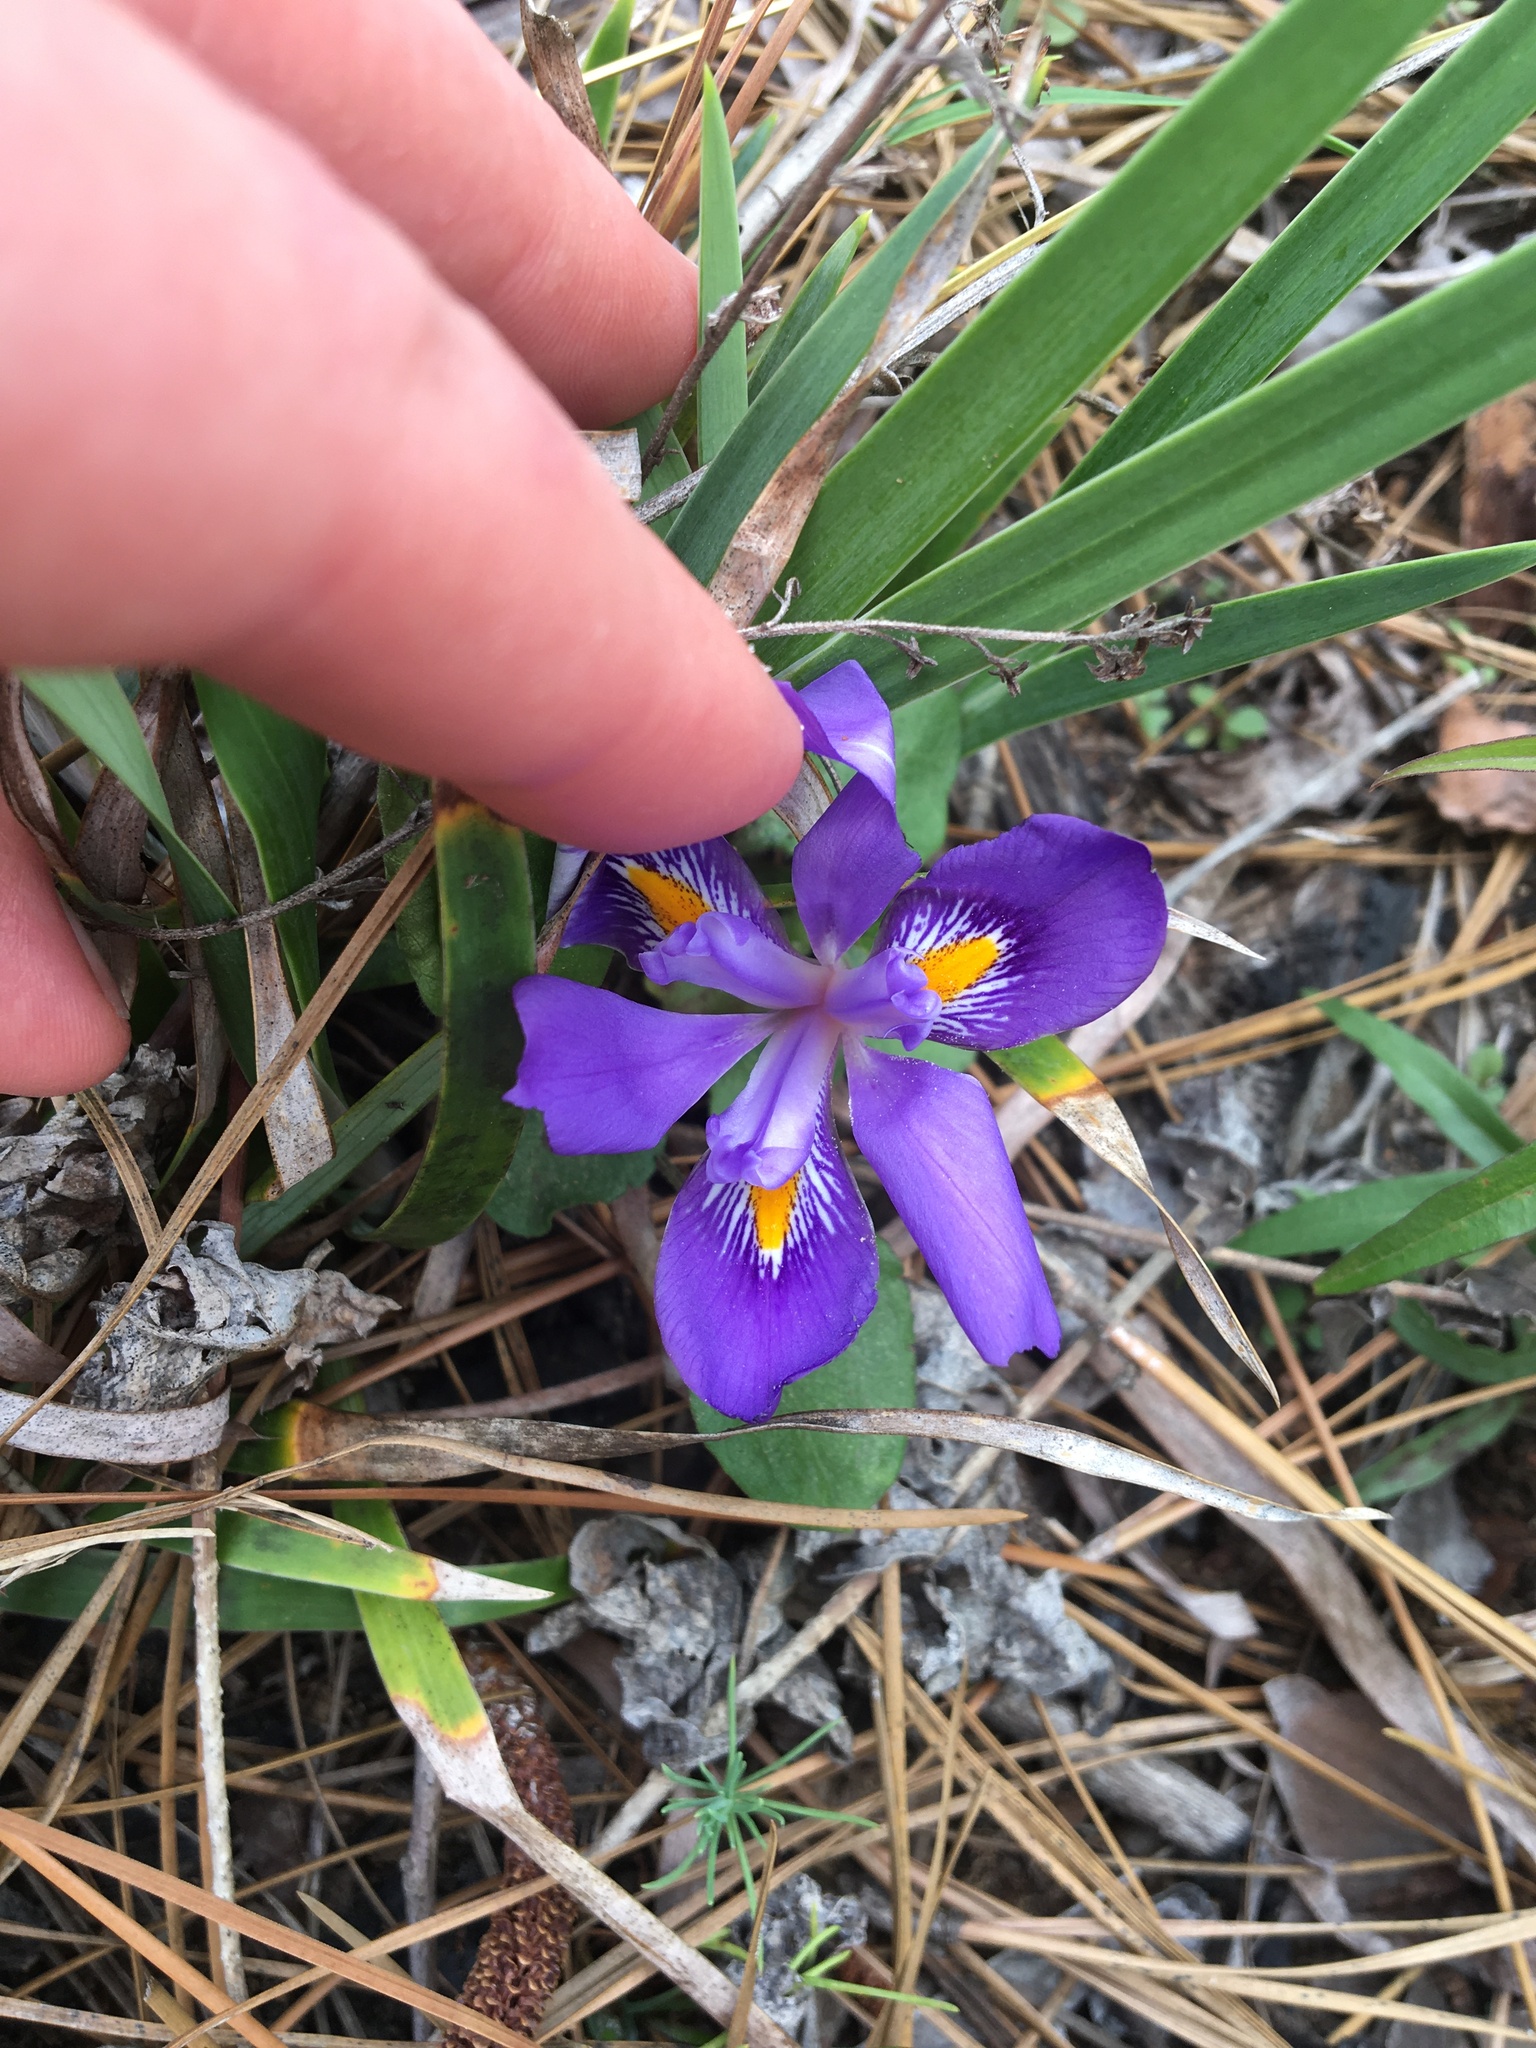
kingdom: Plantae
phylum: Tracheophyta
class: Liliopsida
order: Asparagales
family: Iridaceae
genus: Iris
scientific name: Iris verna
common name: Dwarf iris
